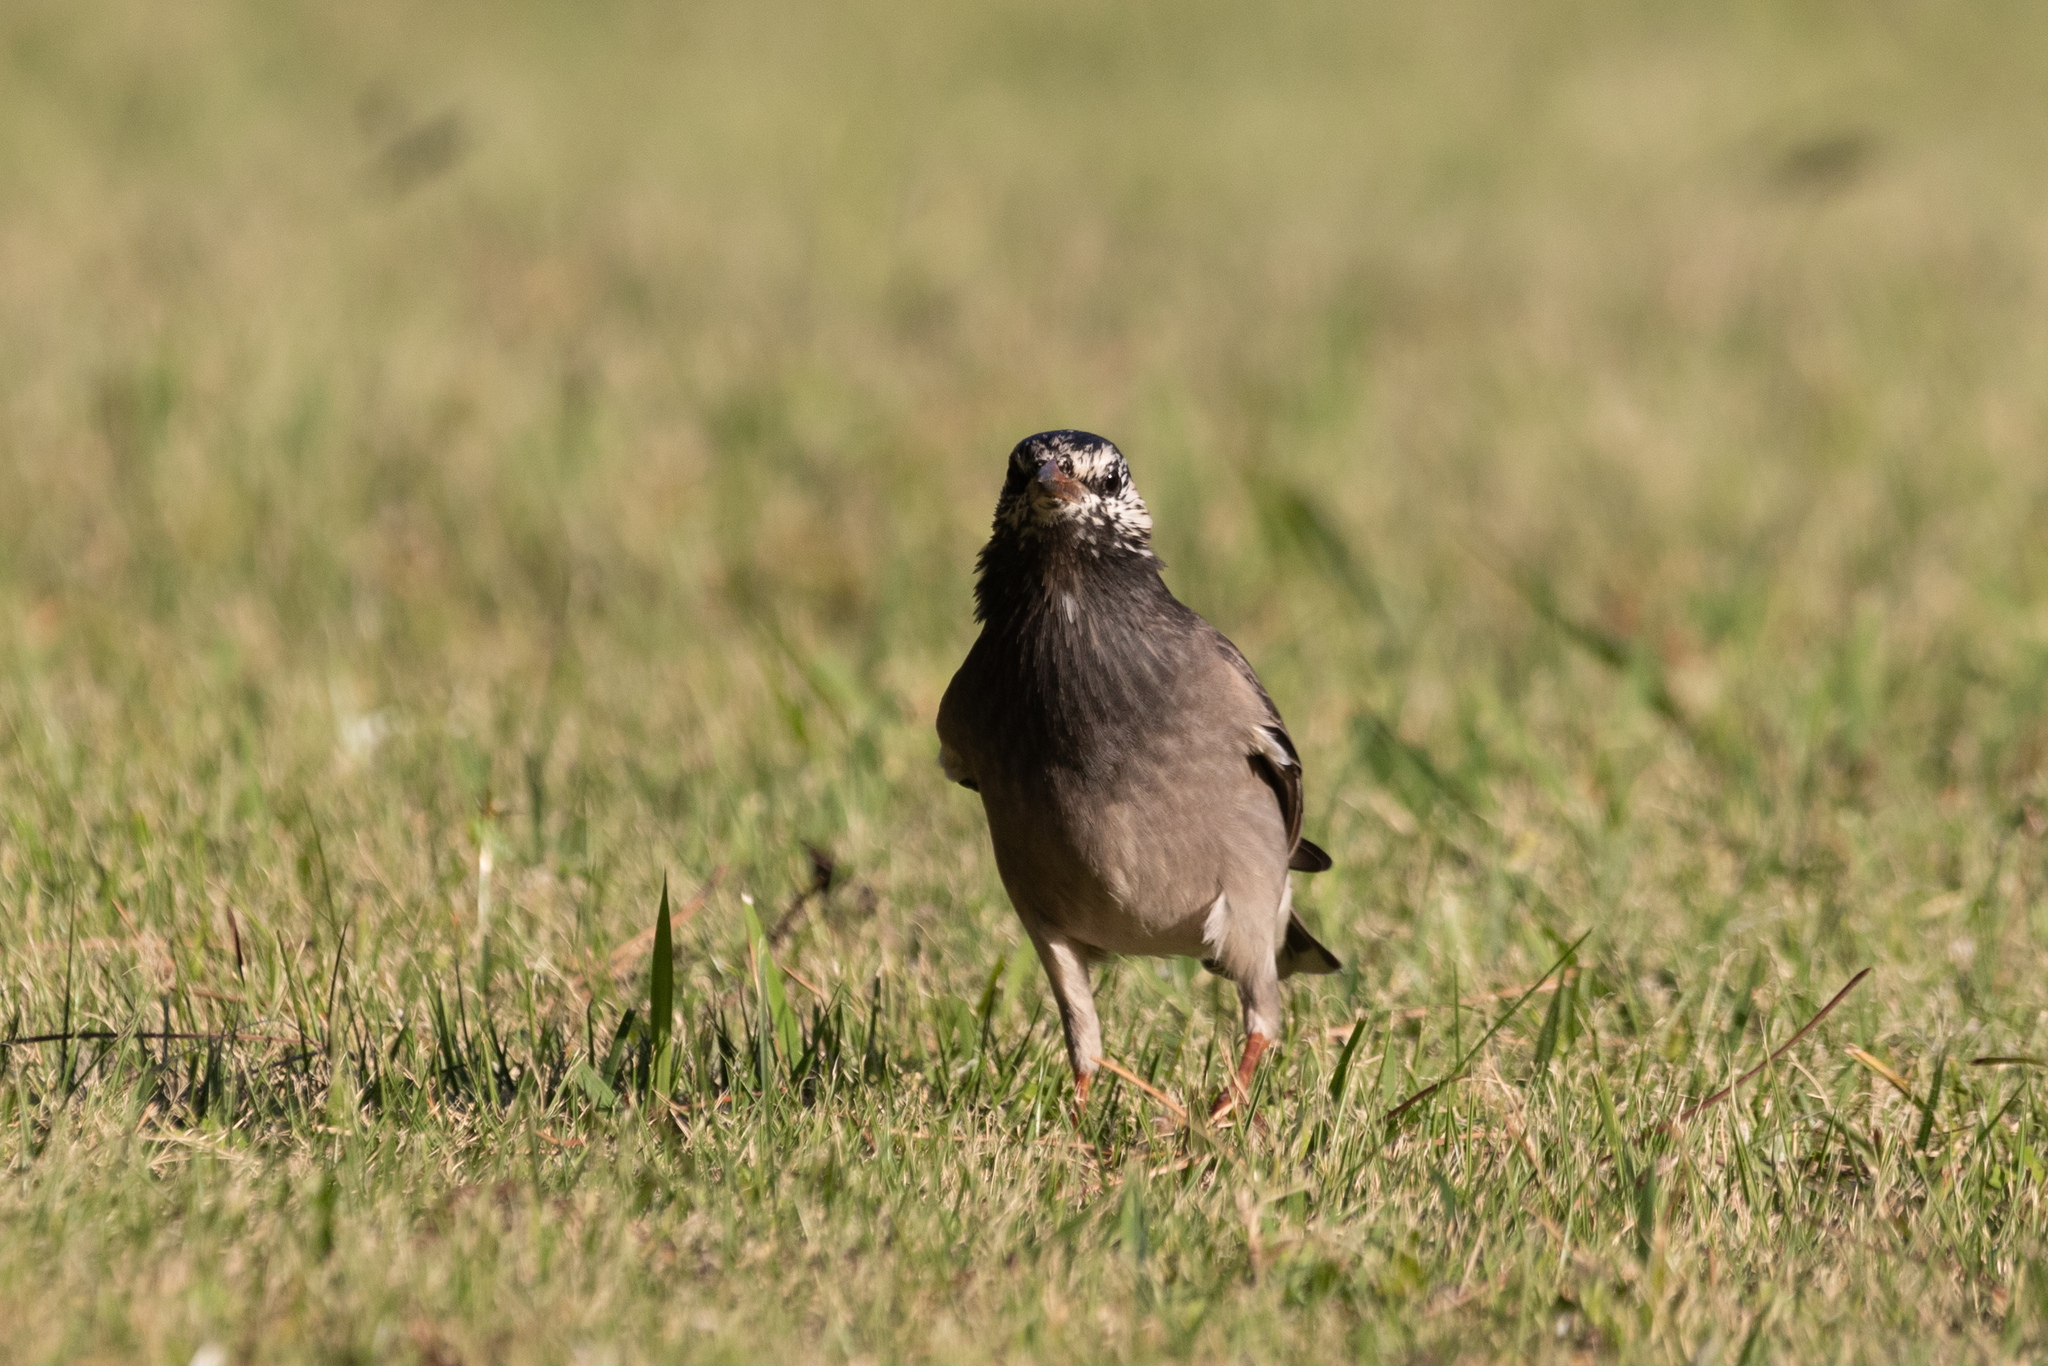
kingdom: Animalia
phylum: Chordata
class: Aves
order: Passeriformes
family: Sturnidae
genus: Spodiopsar
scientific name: Spodiopsar cineraceus
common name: White-cheeked starling
